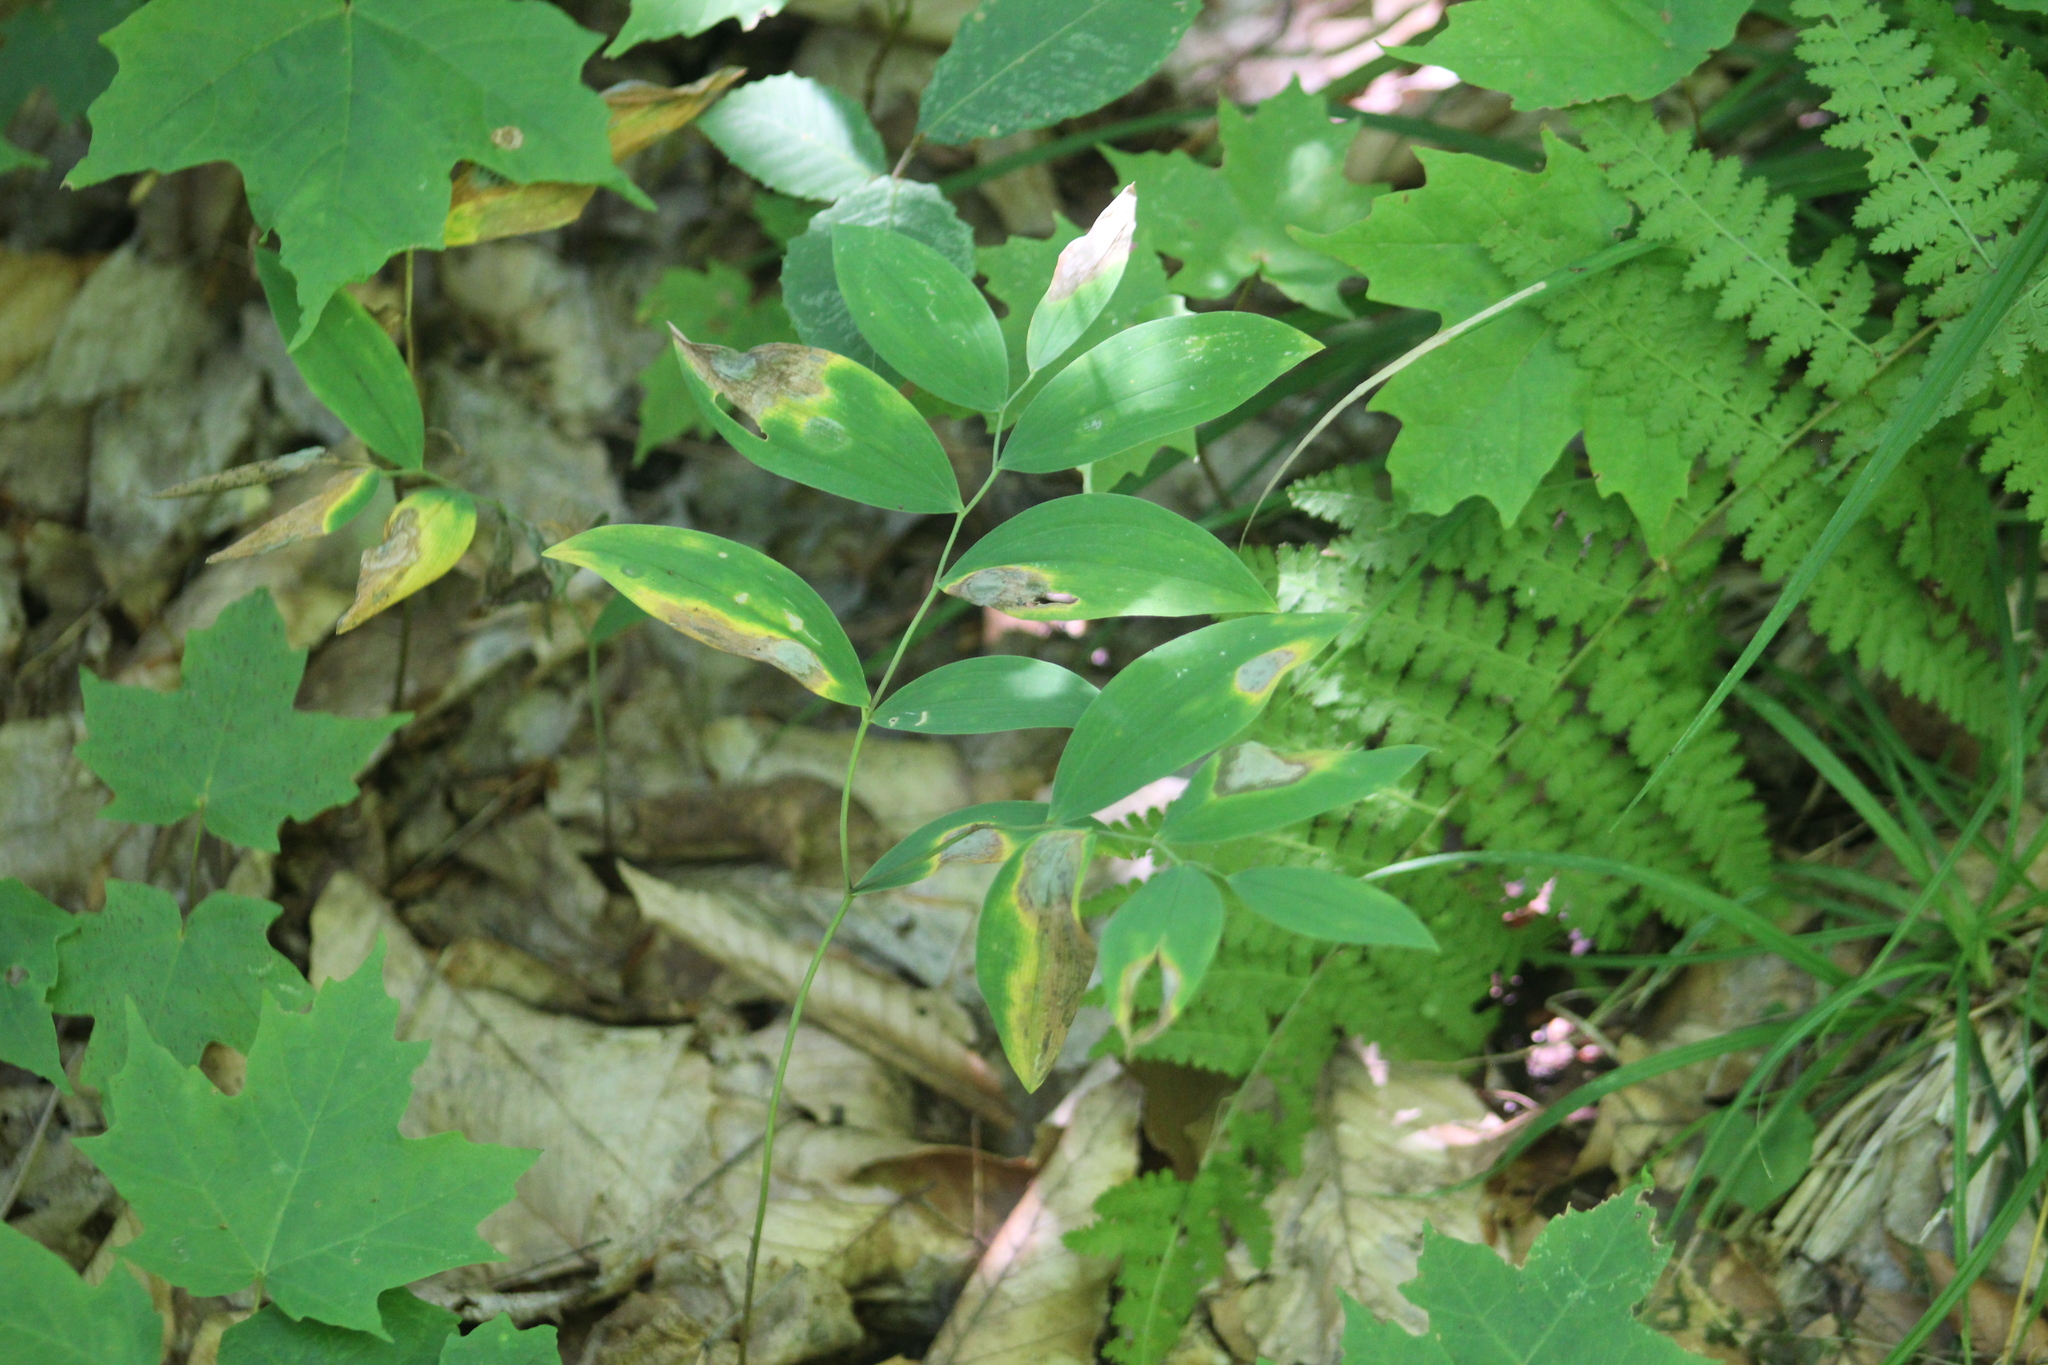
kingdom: Plantae
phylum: Tracheophyta
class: Liliopsida
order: Liliales
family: Colchicaceae
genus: Uvularia
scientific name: Uvularia sessilifolia
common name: Straw-lily
